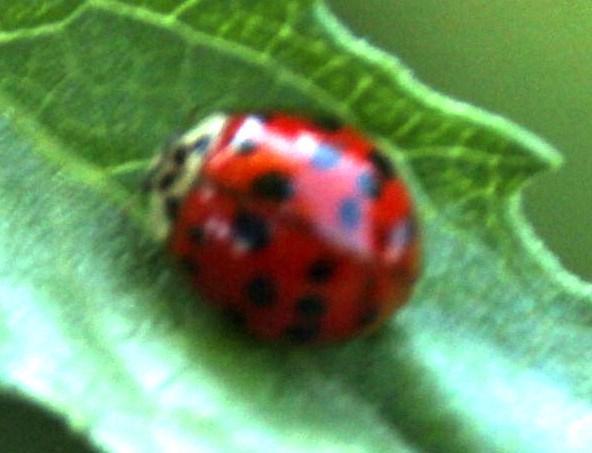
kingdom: Animalia
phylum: Arthropoda
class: Insecta
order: Coleoptera
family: Coccinellidae
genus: Harmonia
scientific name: Harmonia axyridis
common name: Harlequin ladybird
